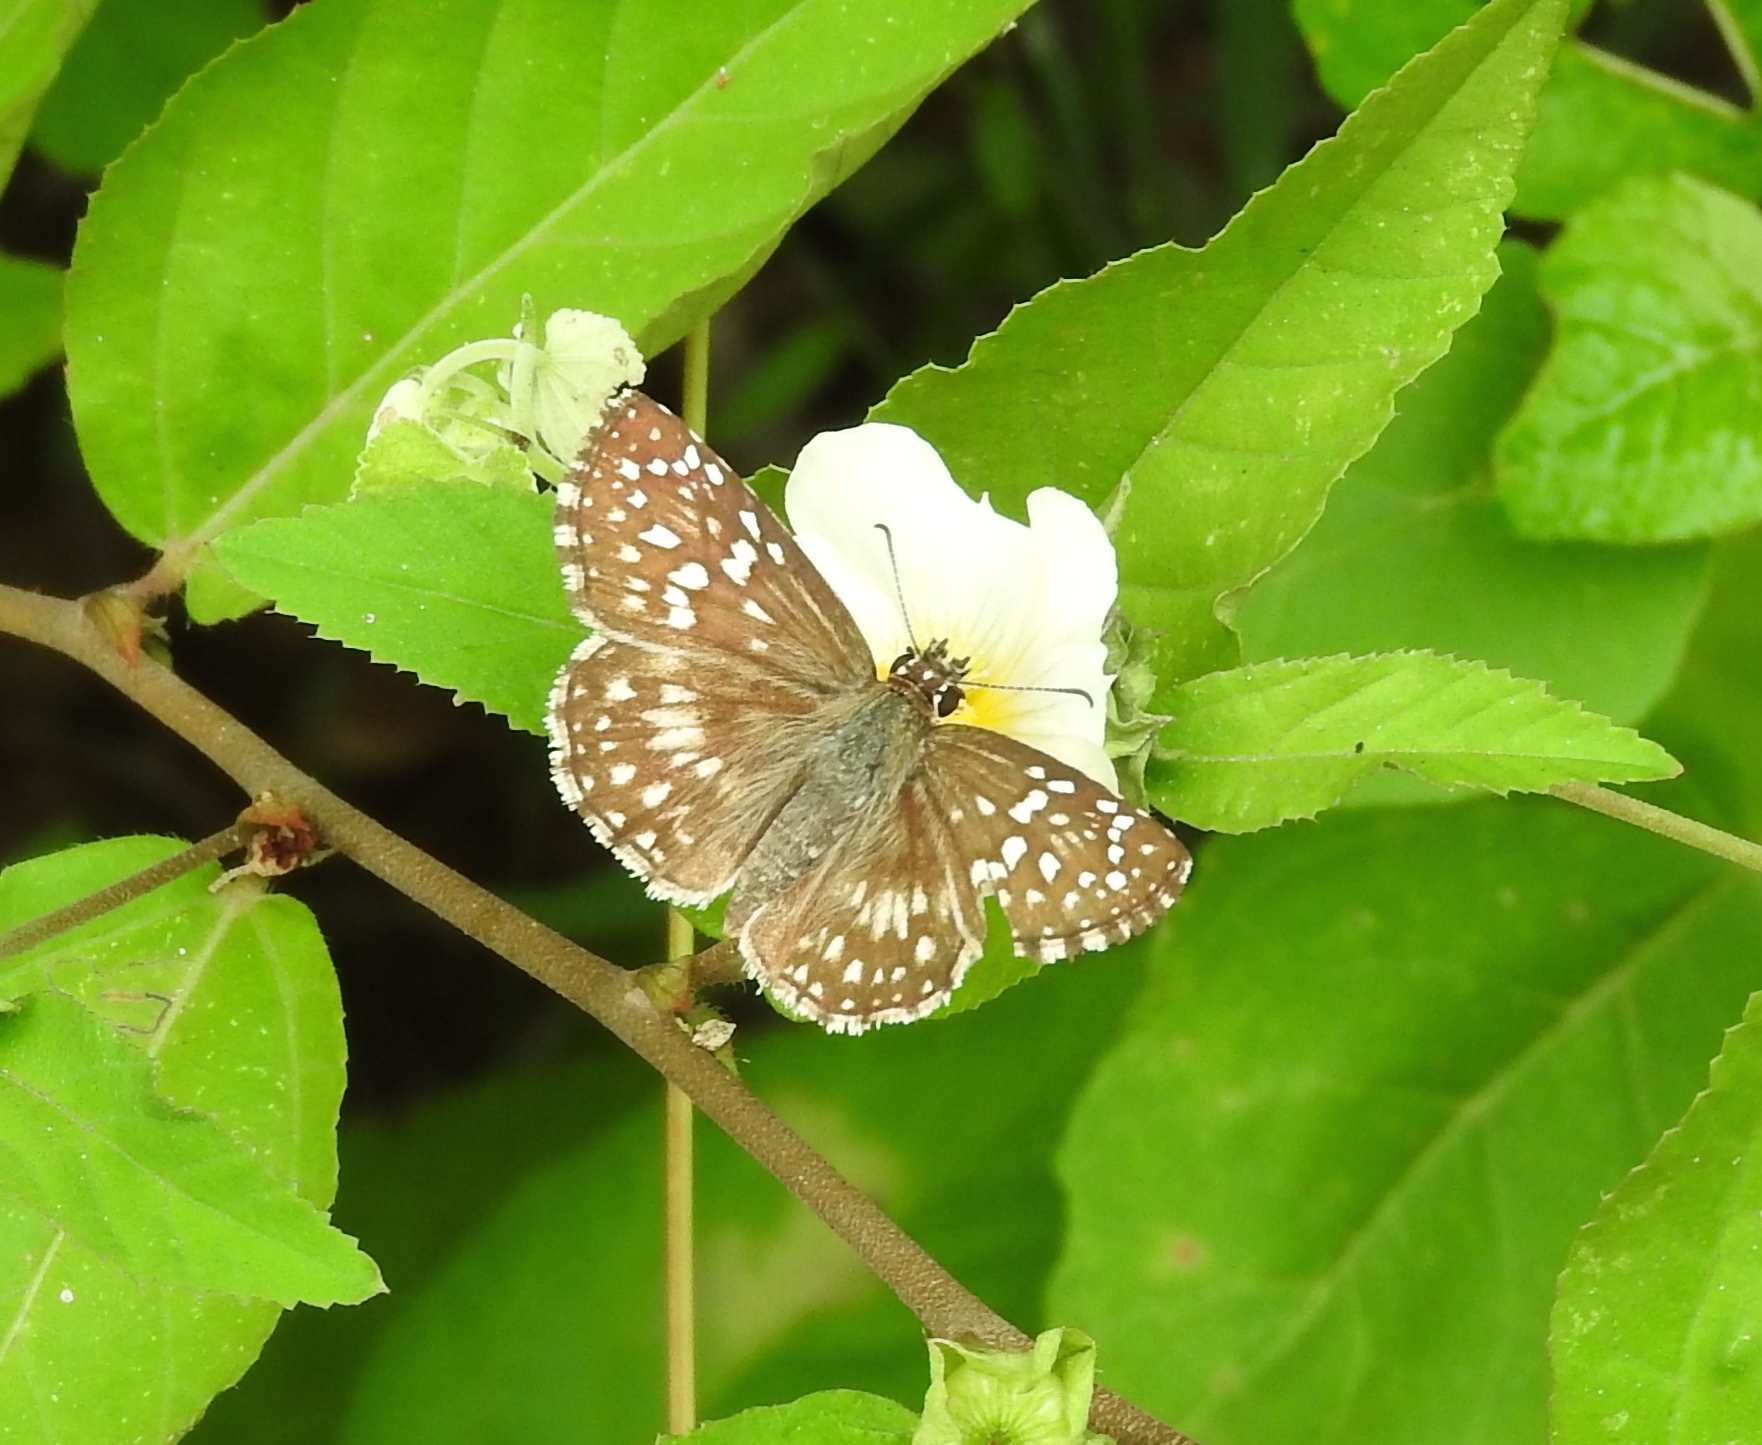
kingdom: Animalia
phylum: Arthropoda
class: Insecta
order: Lepidoptera
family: Hesperiidae
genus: Pyrgus
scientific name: Pyrgus oileus
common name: Tropical checkered-skipper
